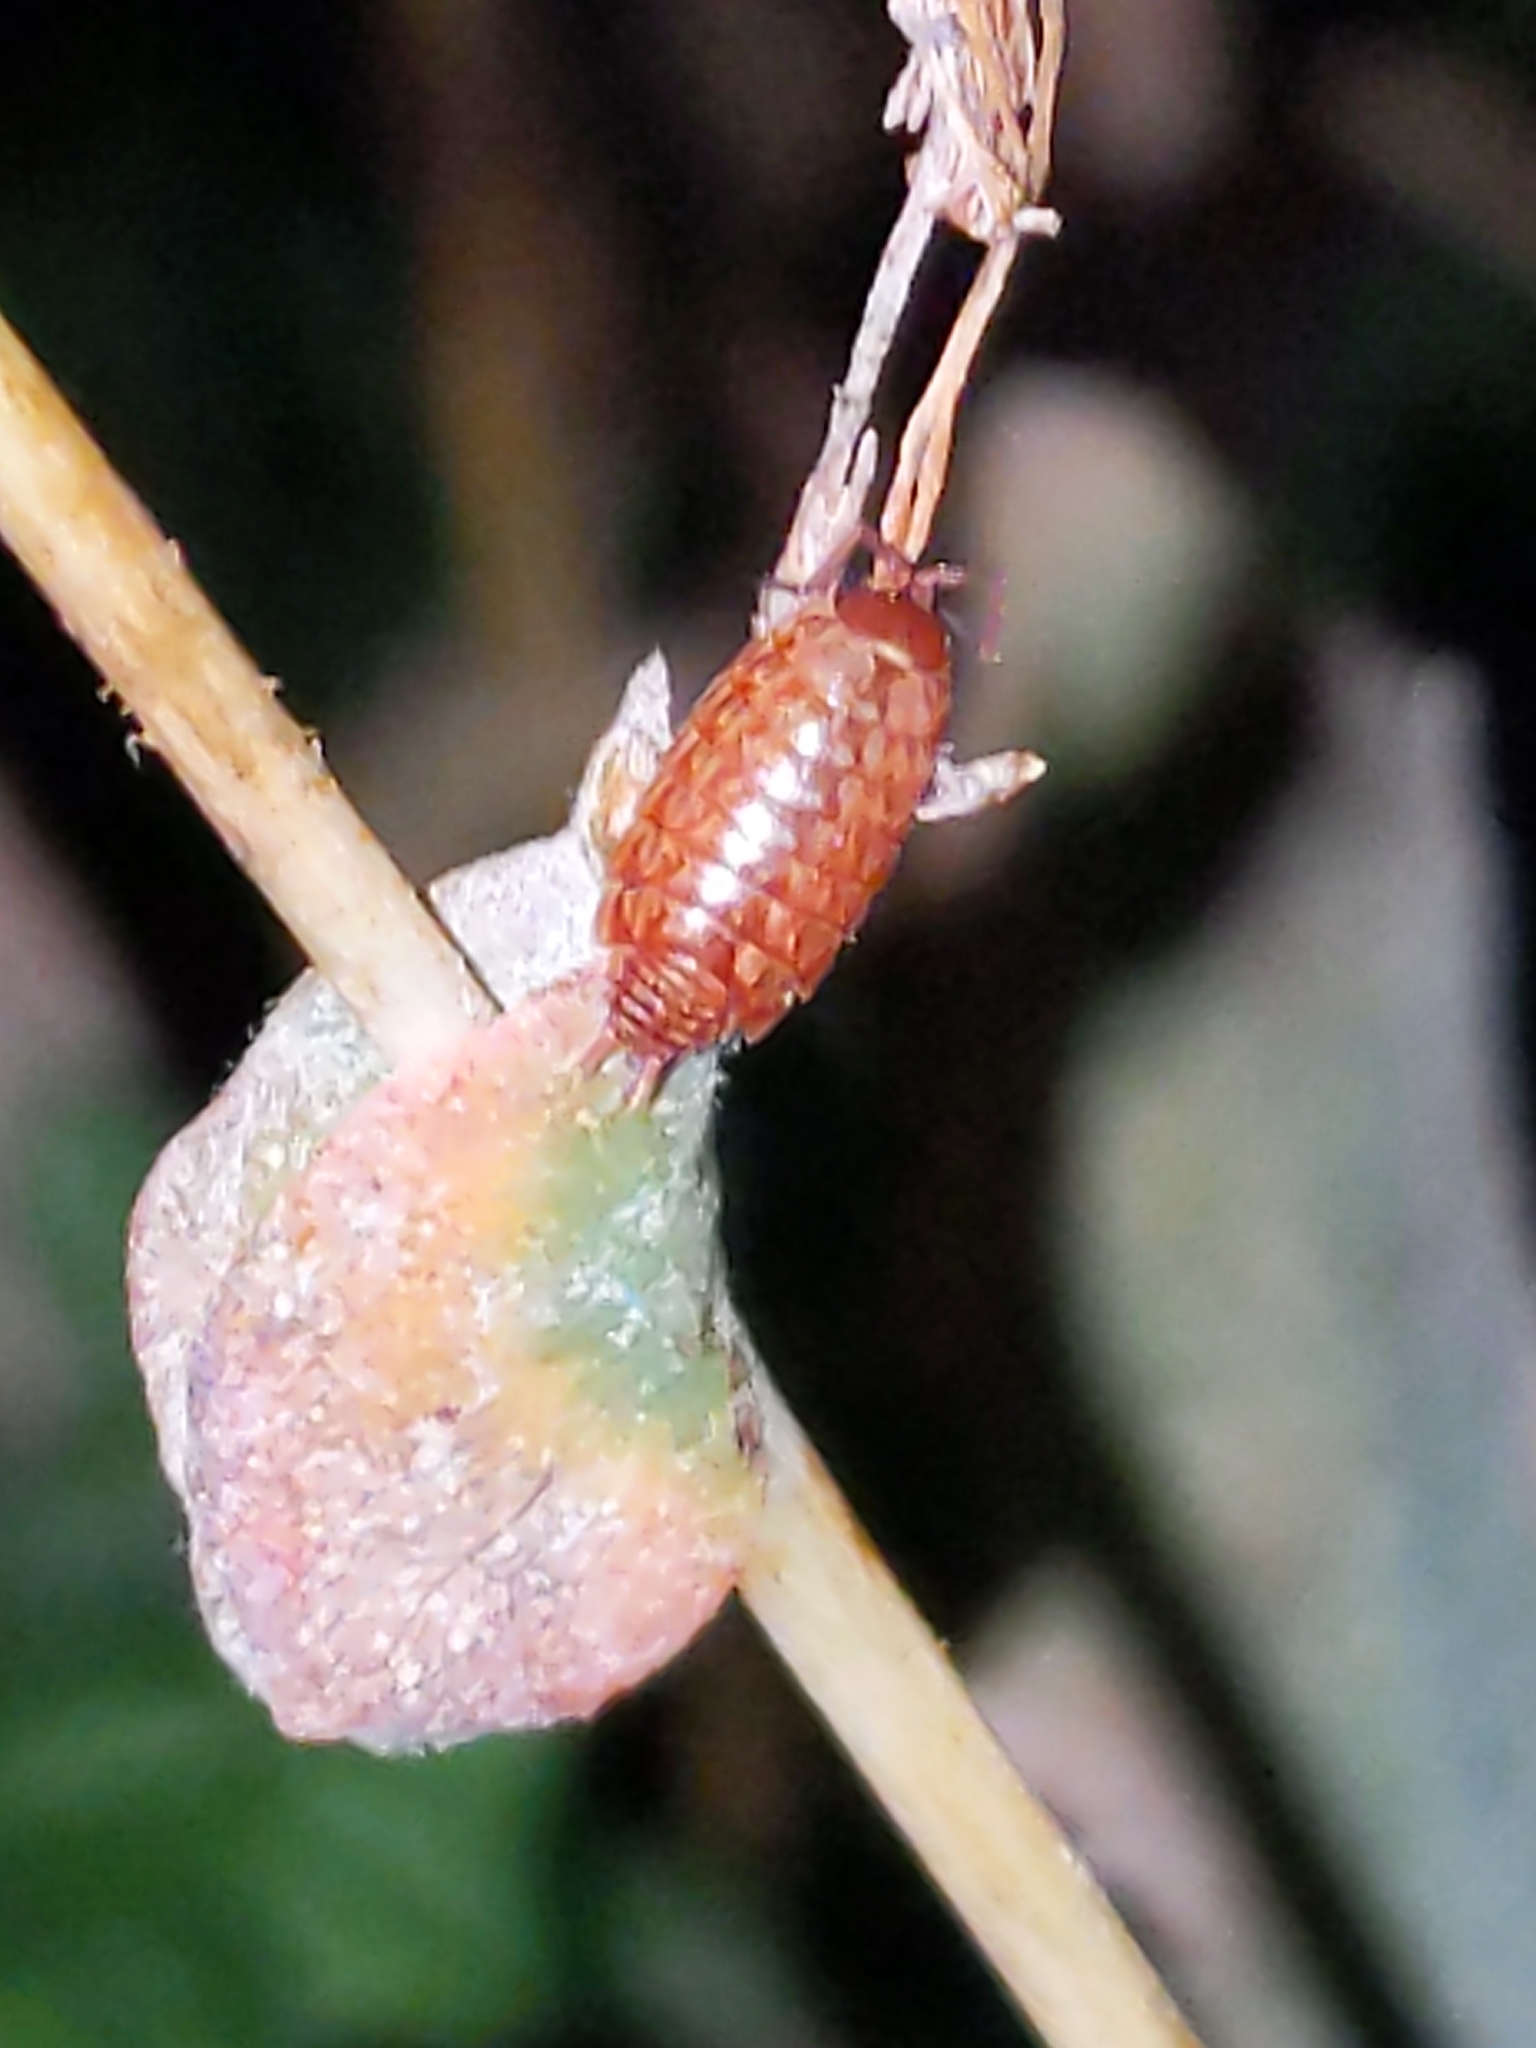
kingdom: Animalia
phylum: Arthropoda
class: Malacostraca
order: Isopoda
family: Philosciidae
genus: Philoscia
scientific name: Philoscia muscorum
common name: Common striped woodlouse
